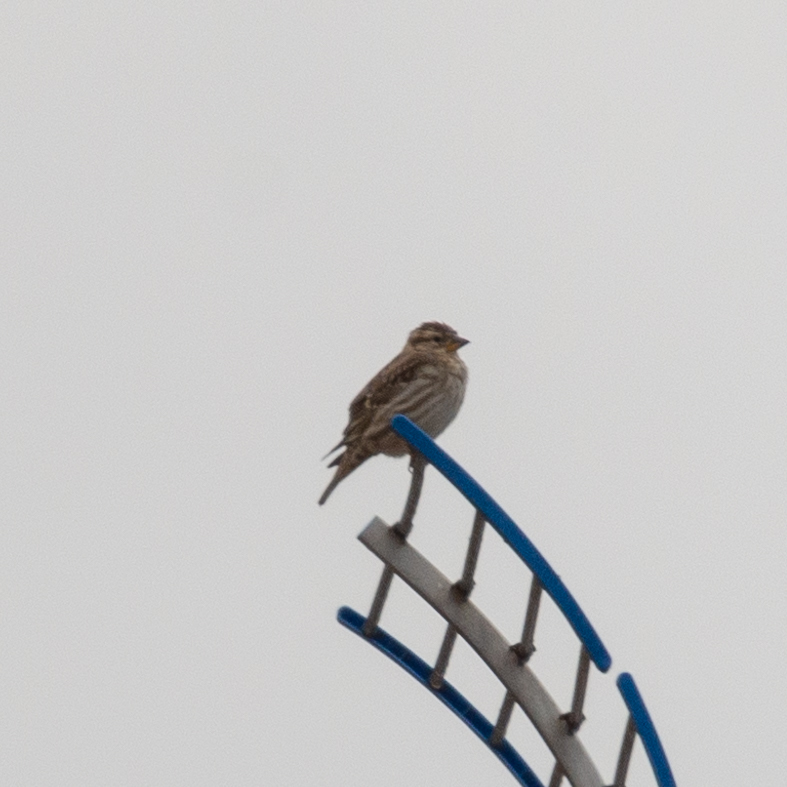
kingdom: Animalia
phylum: Chordata
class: Aves
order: Passeriformes
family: Passeridae
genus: Petronia
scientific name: Petronia petronia
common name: Rock sparrow
